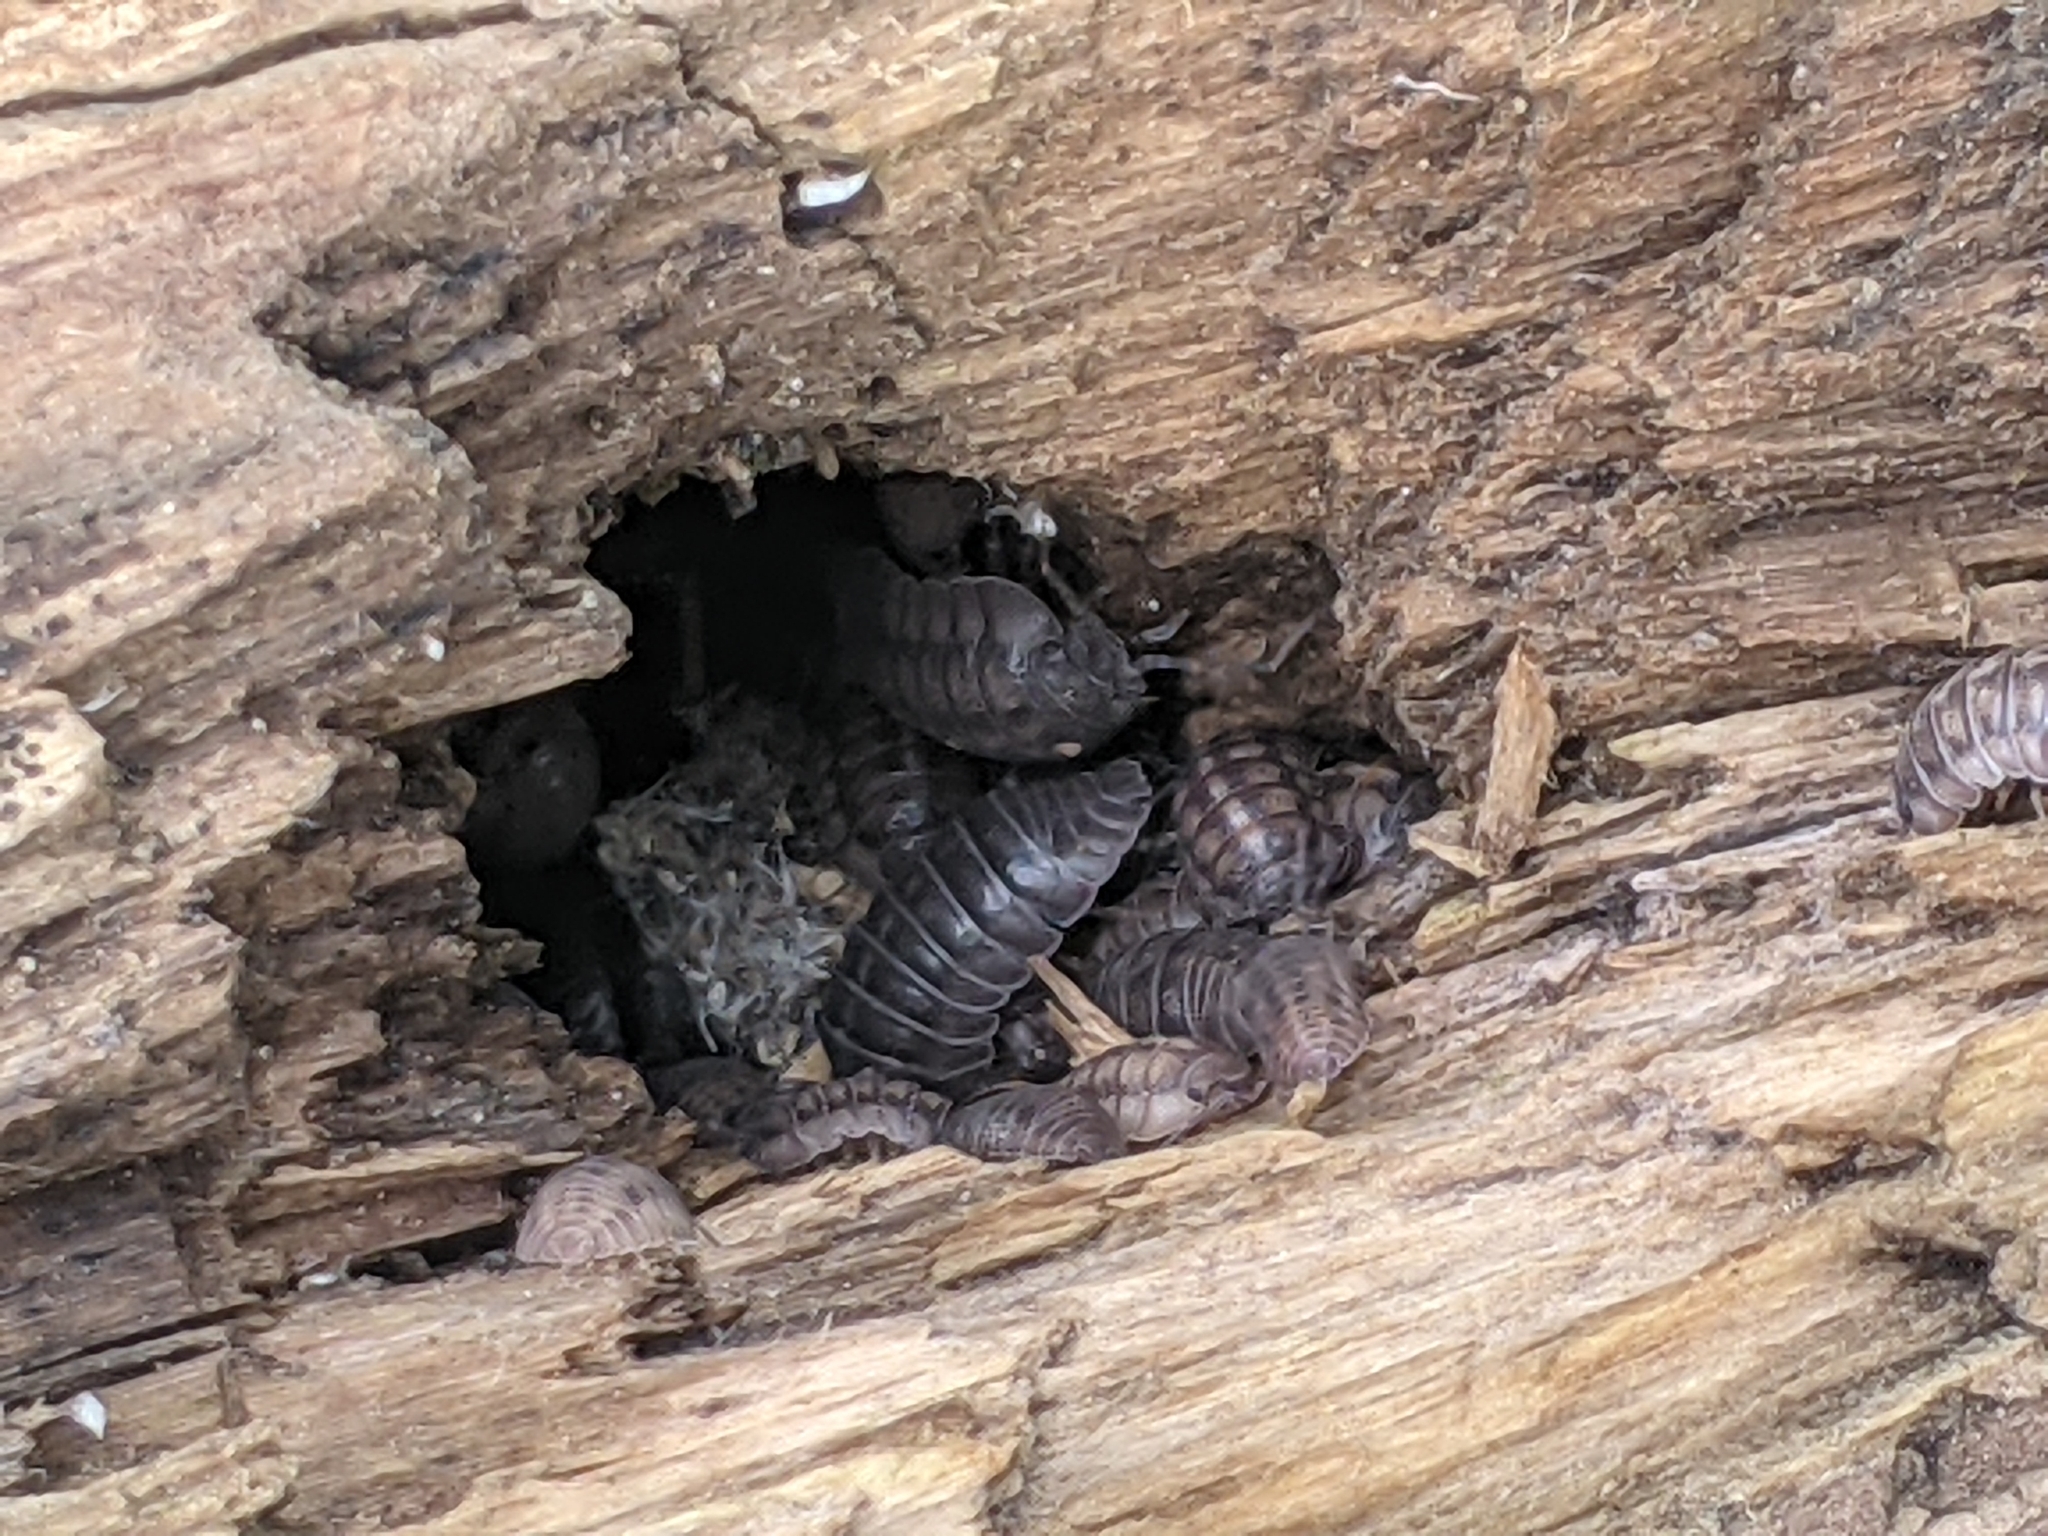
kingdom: Animalia
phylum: Arthropoda
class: Malacostraca
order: Isopoda
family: Armadillidiidae
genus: Armadillidium
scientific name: Armadillidium nasatum
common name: Isopod
